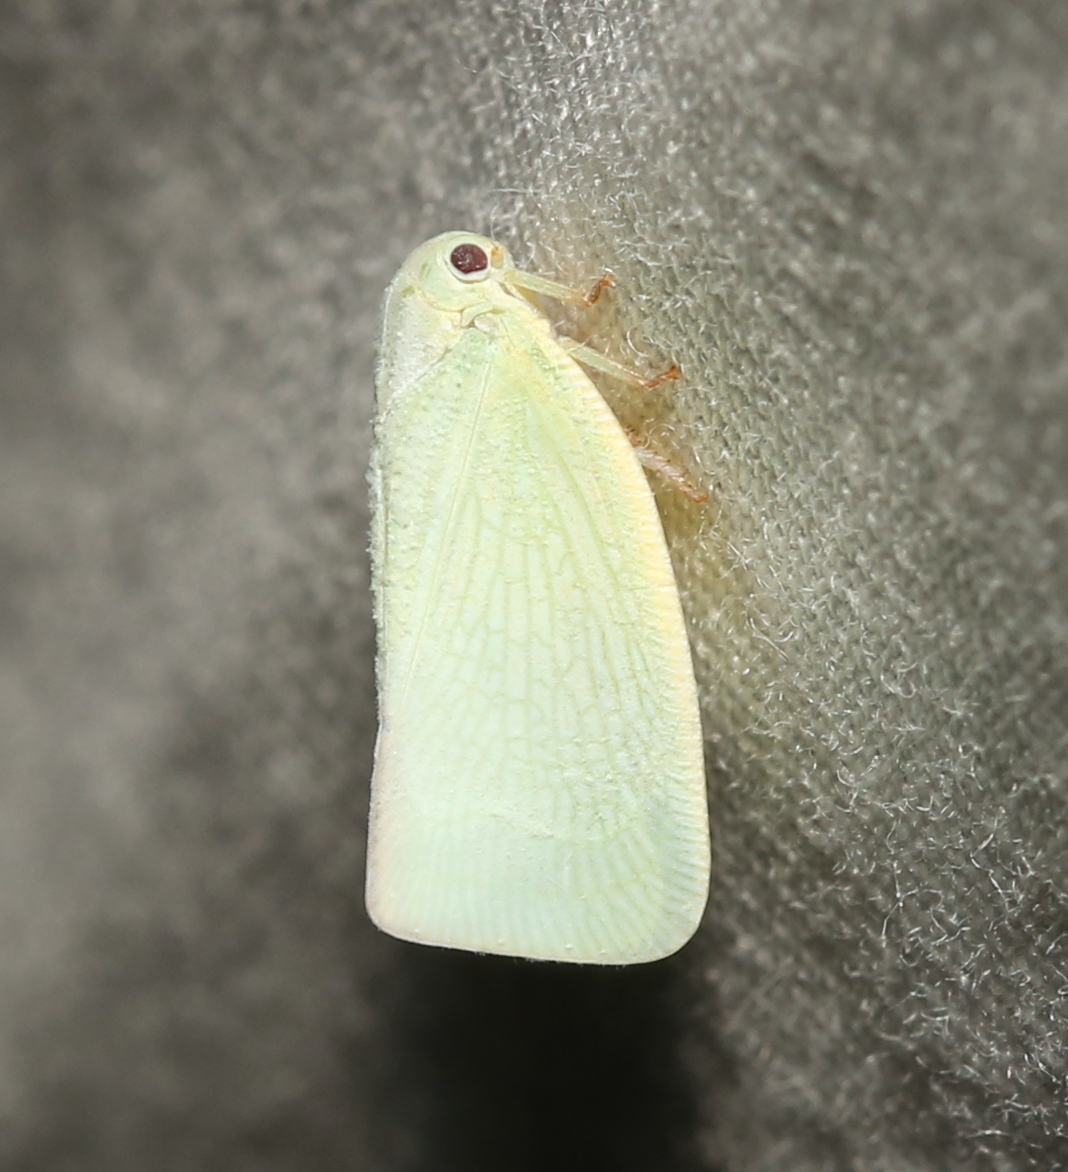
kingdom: Animalia
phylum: Arthropoda
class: Insecta
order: Hemiptera
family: Flatidae
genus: Flatormenis
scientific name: Flatormenis proxima
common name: Northern flatid planthopper
